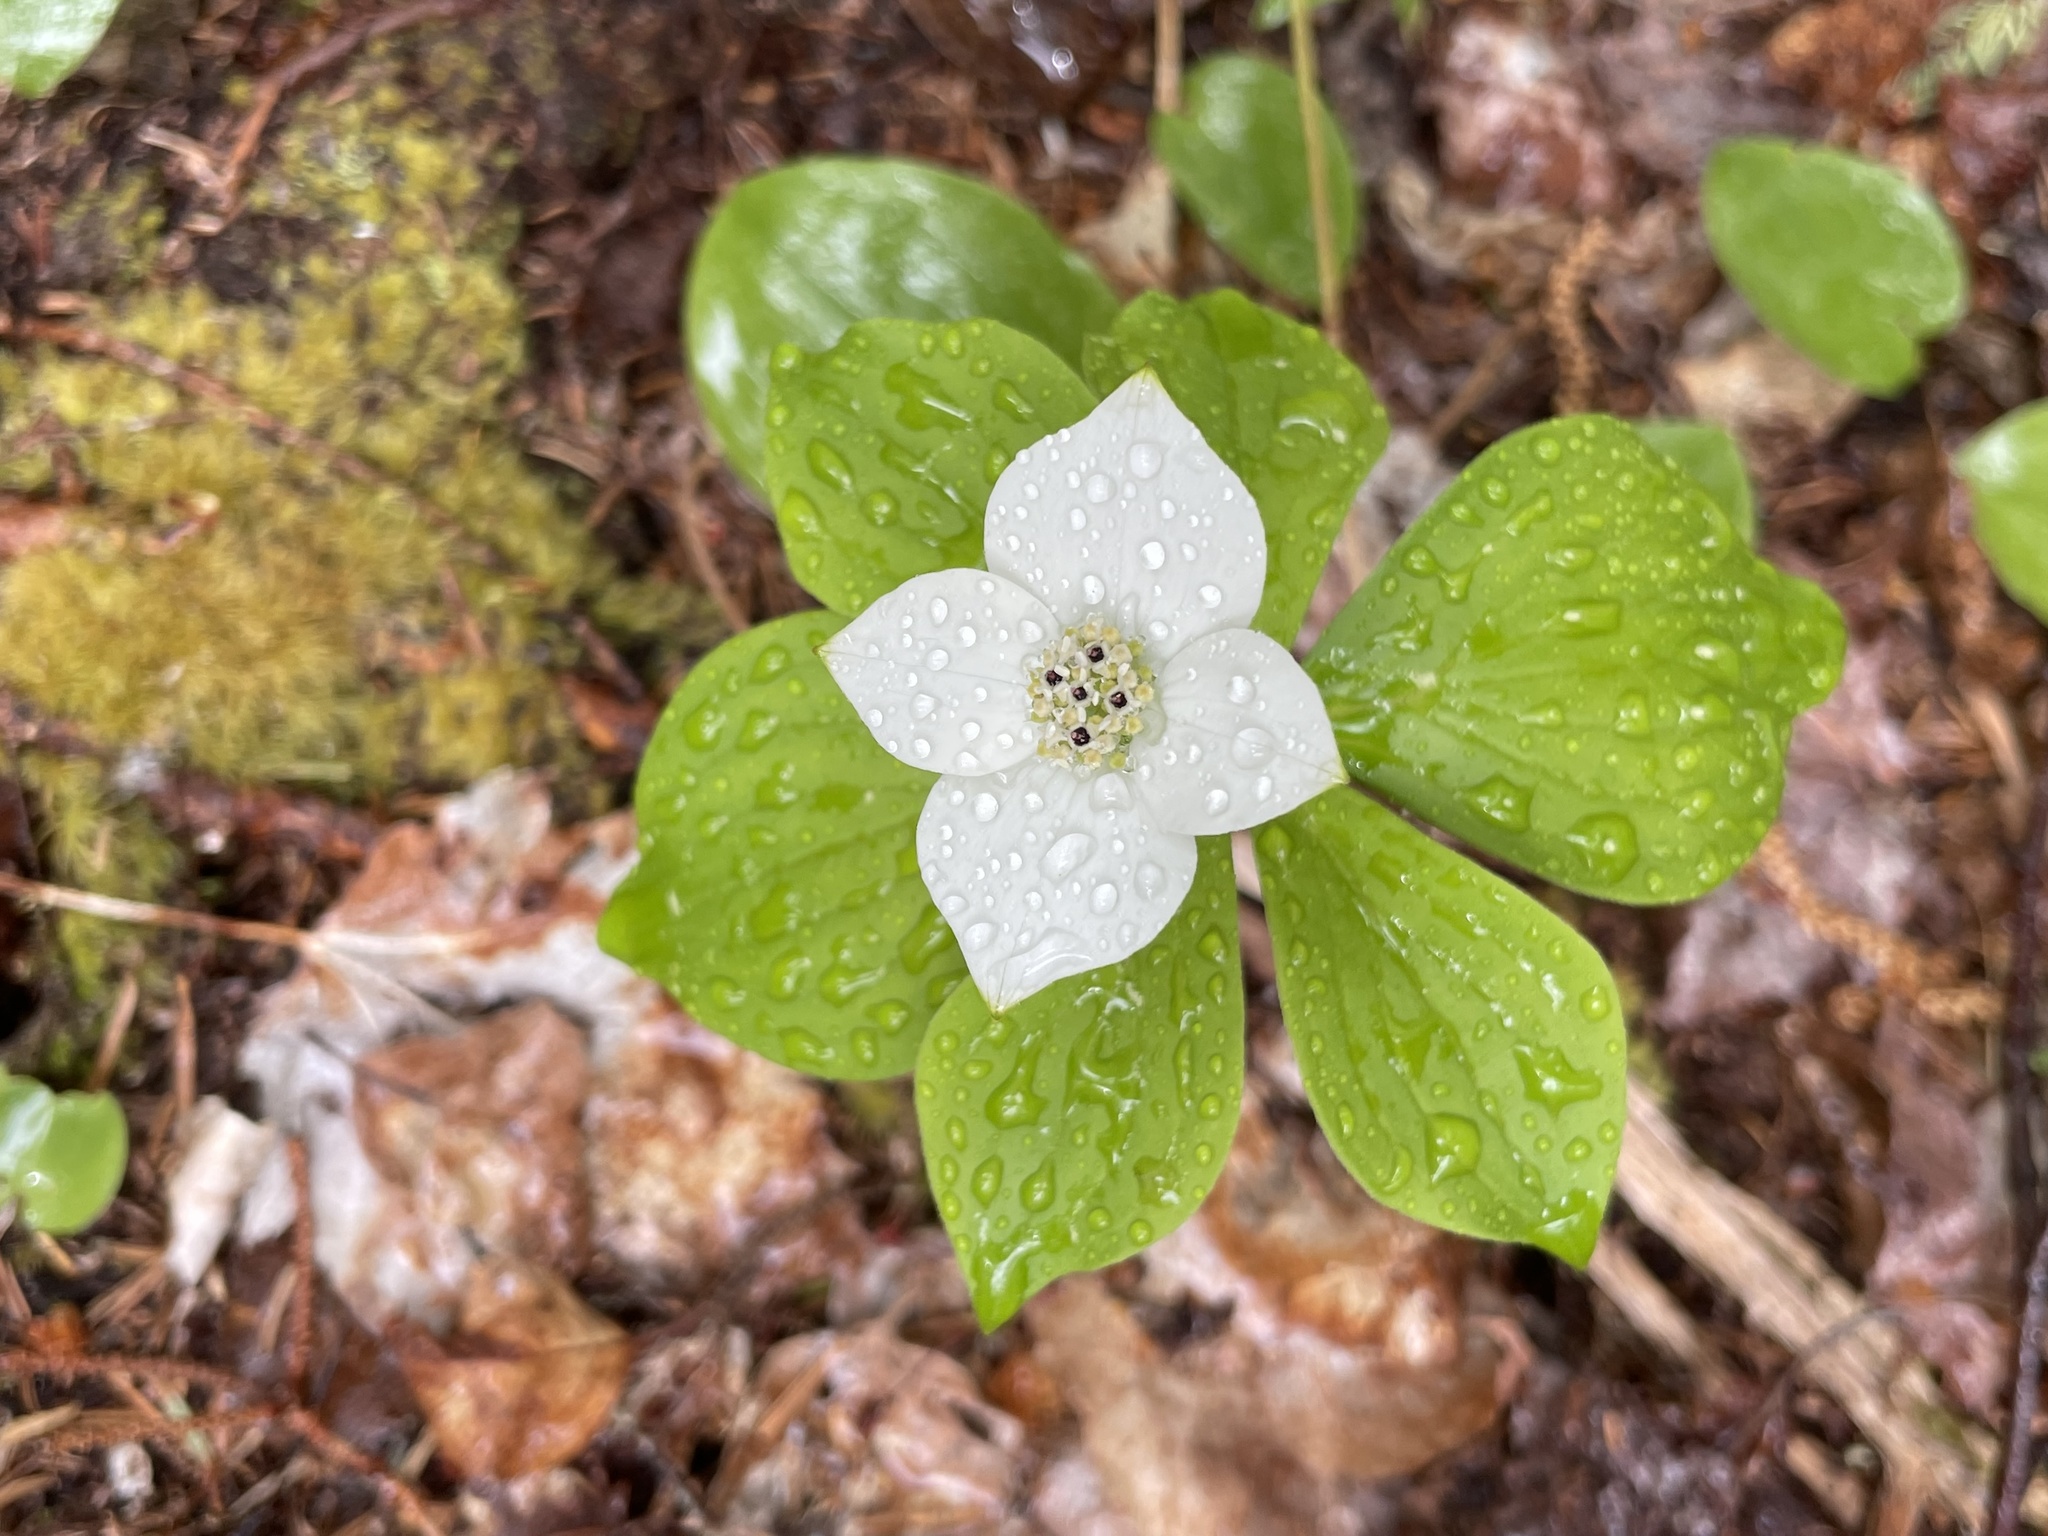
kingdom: Plantae
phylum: Tracheophyta
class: Magnoliopsida
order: Cornales
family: Cornaceae
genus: Cornus
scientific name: Cornus canadensis
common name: Creeping dogwood
